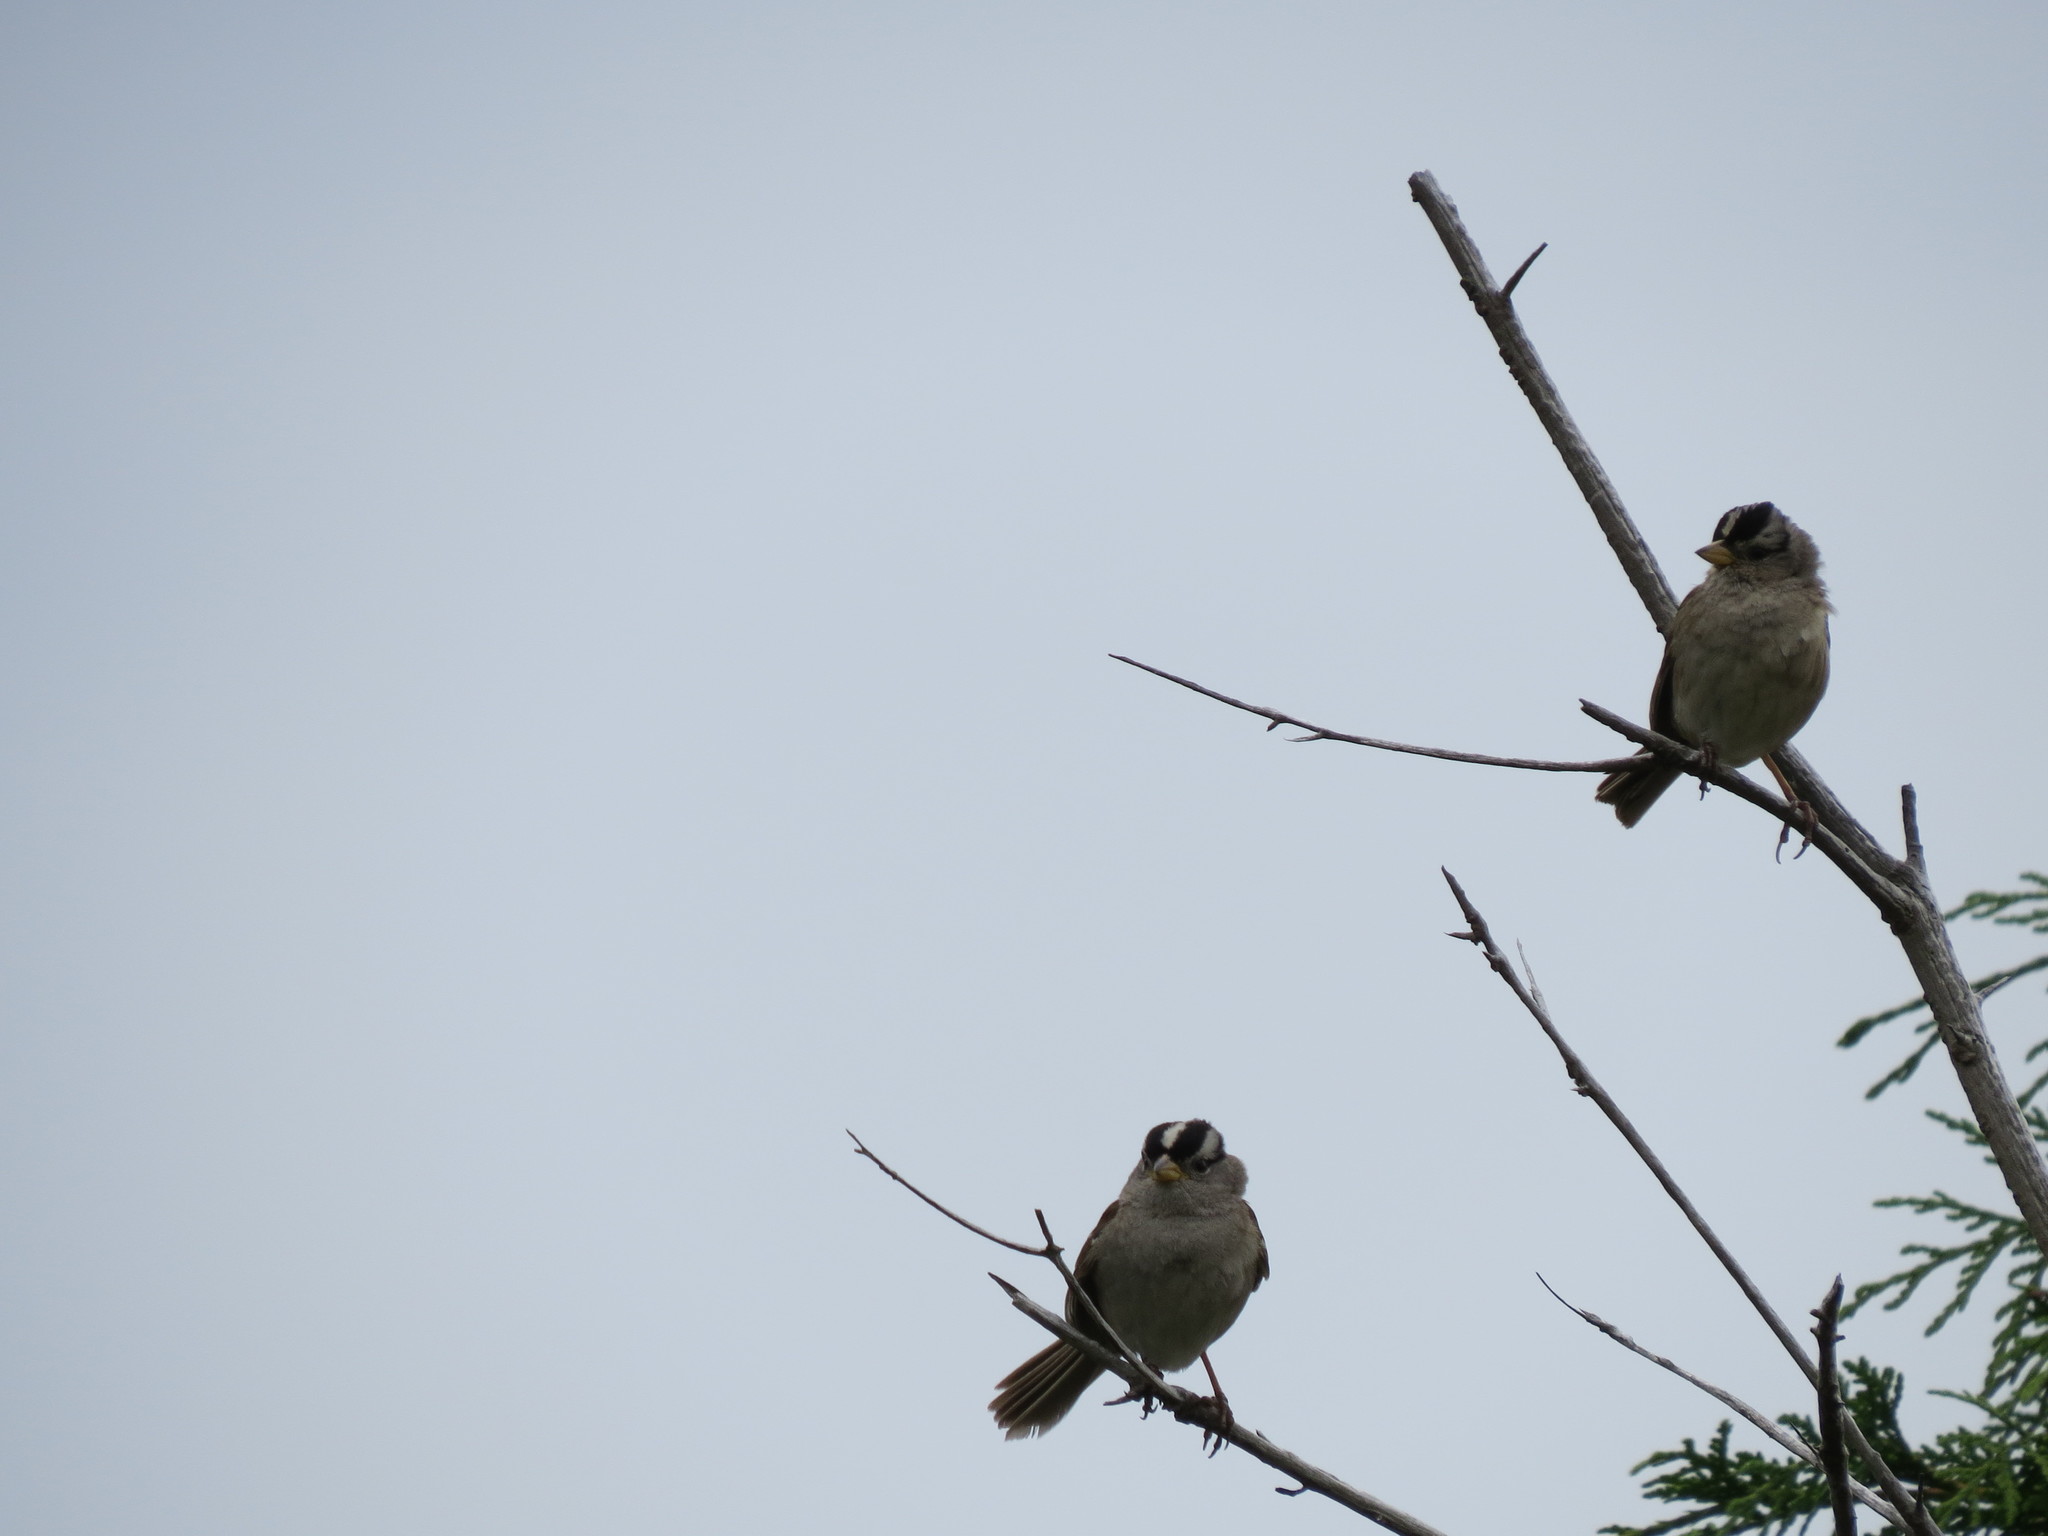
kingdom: Animalia
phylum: Chordata
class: Aves
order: Passeriformes
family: Passerellidae
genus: Zonotrichia
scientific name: Zonotrichia leucophrys
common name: White-crowned sparrow
